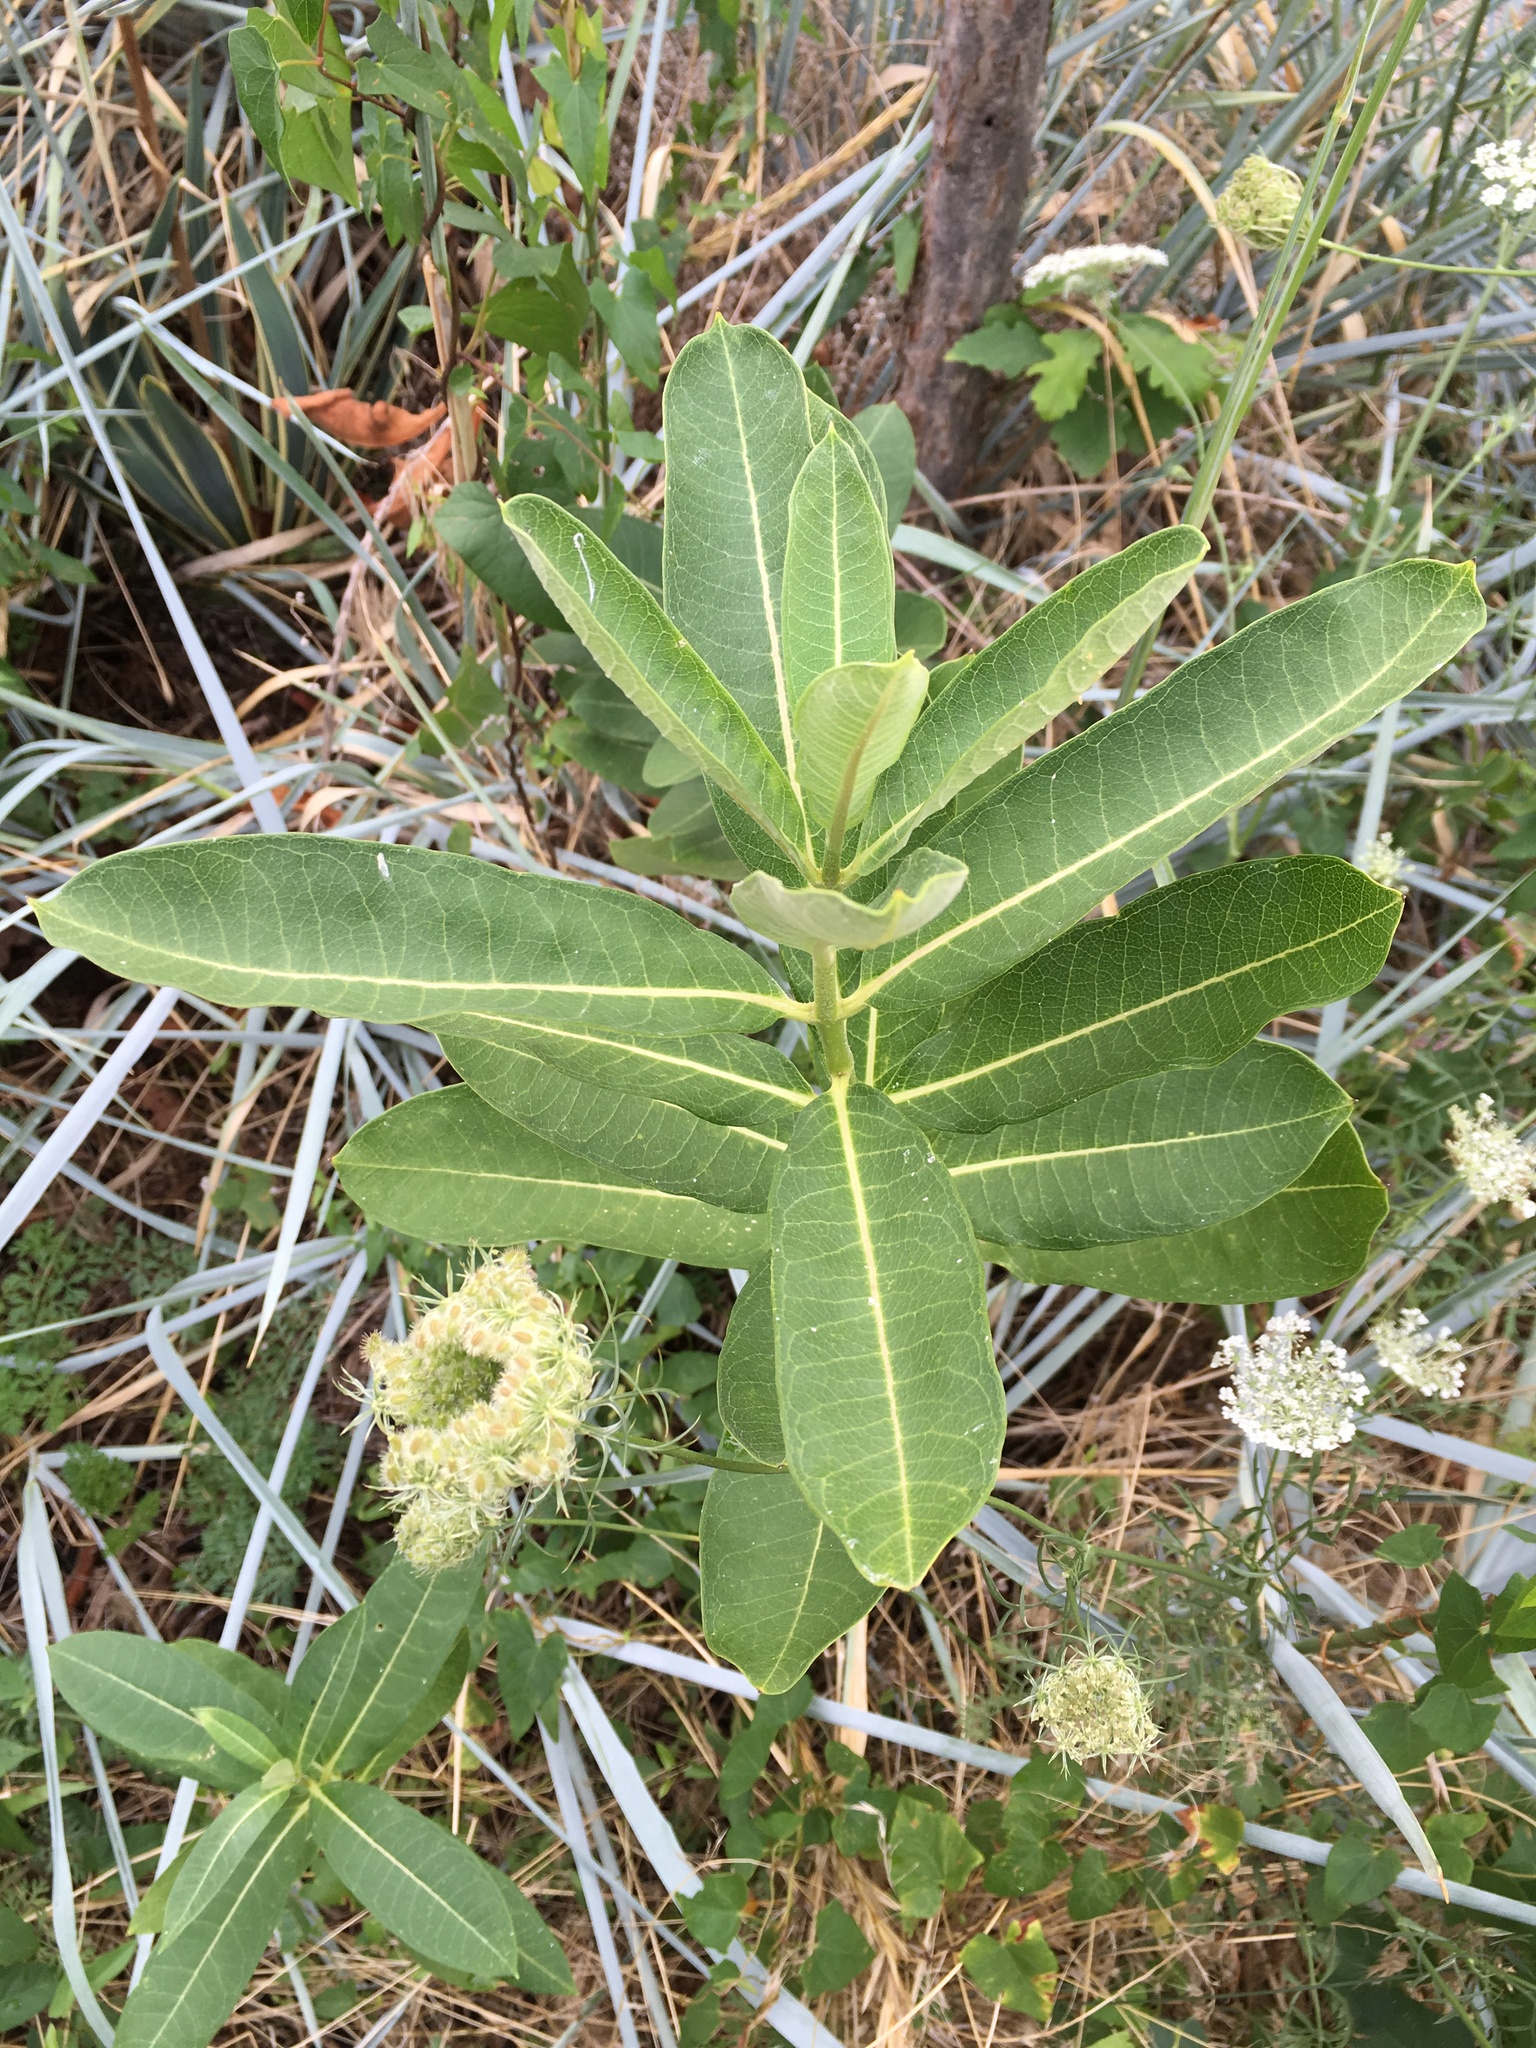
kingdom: Plantae
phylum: Tracheophyta
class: Magnoliopsida
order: Gentianales
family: Apocynaceae
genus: Asclepias
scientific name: Asclepias syriaca
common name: Common milkweed
